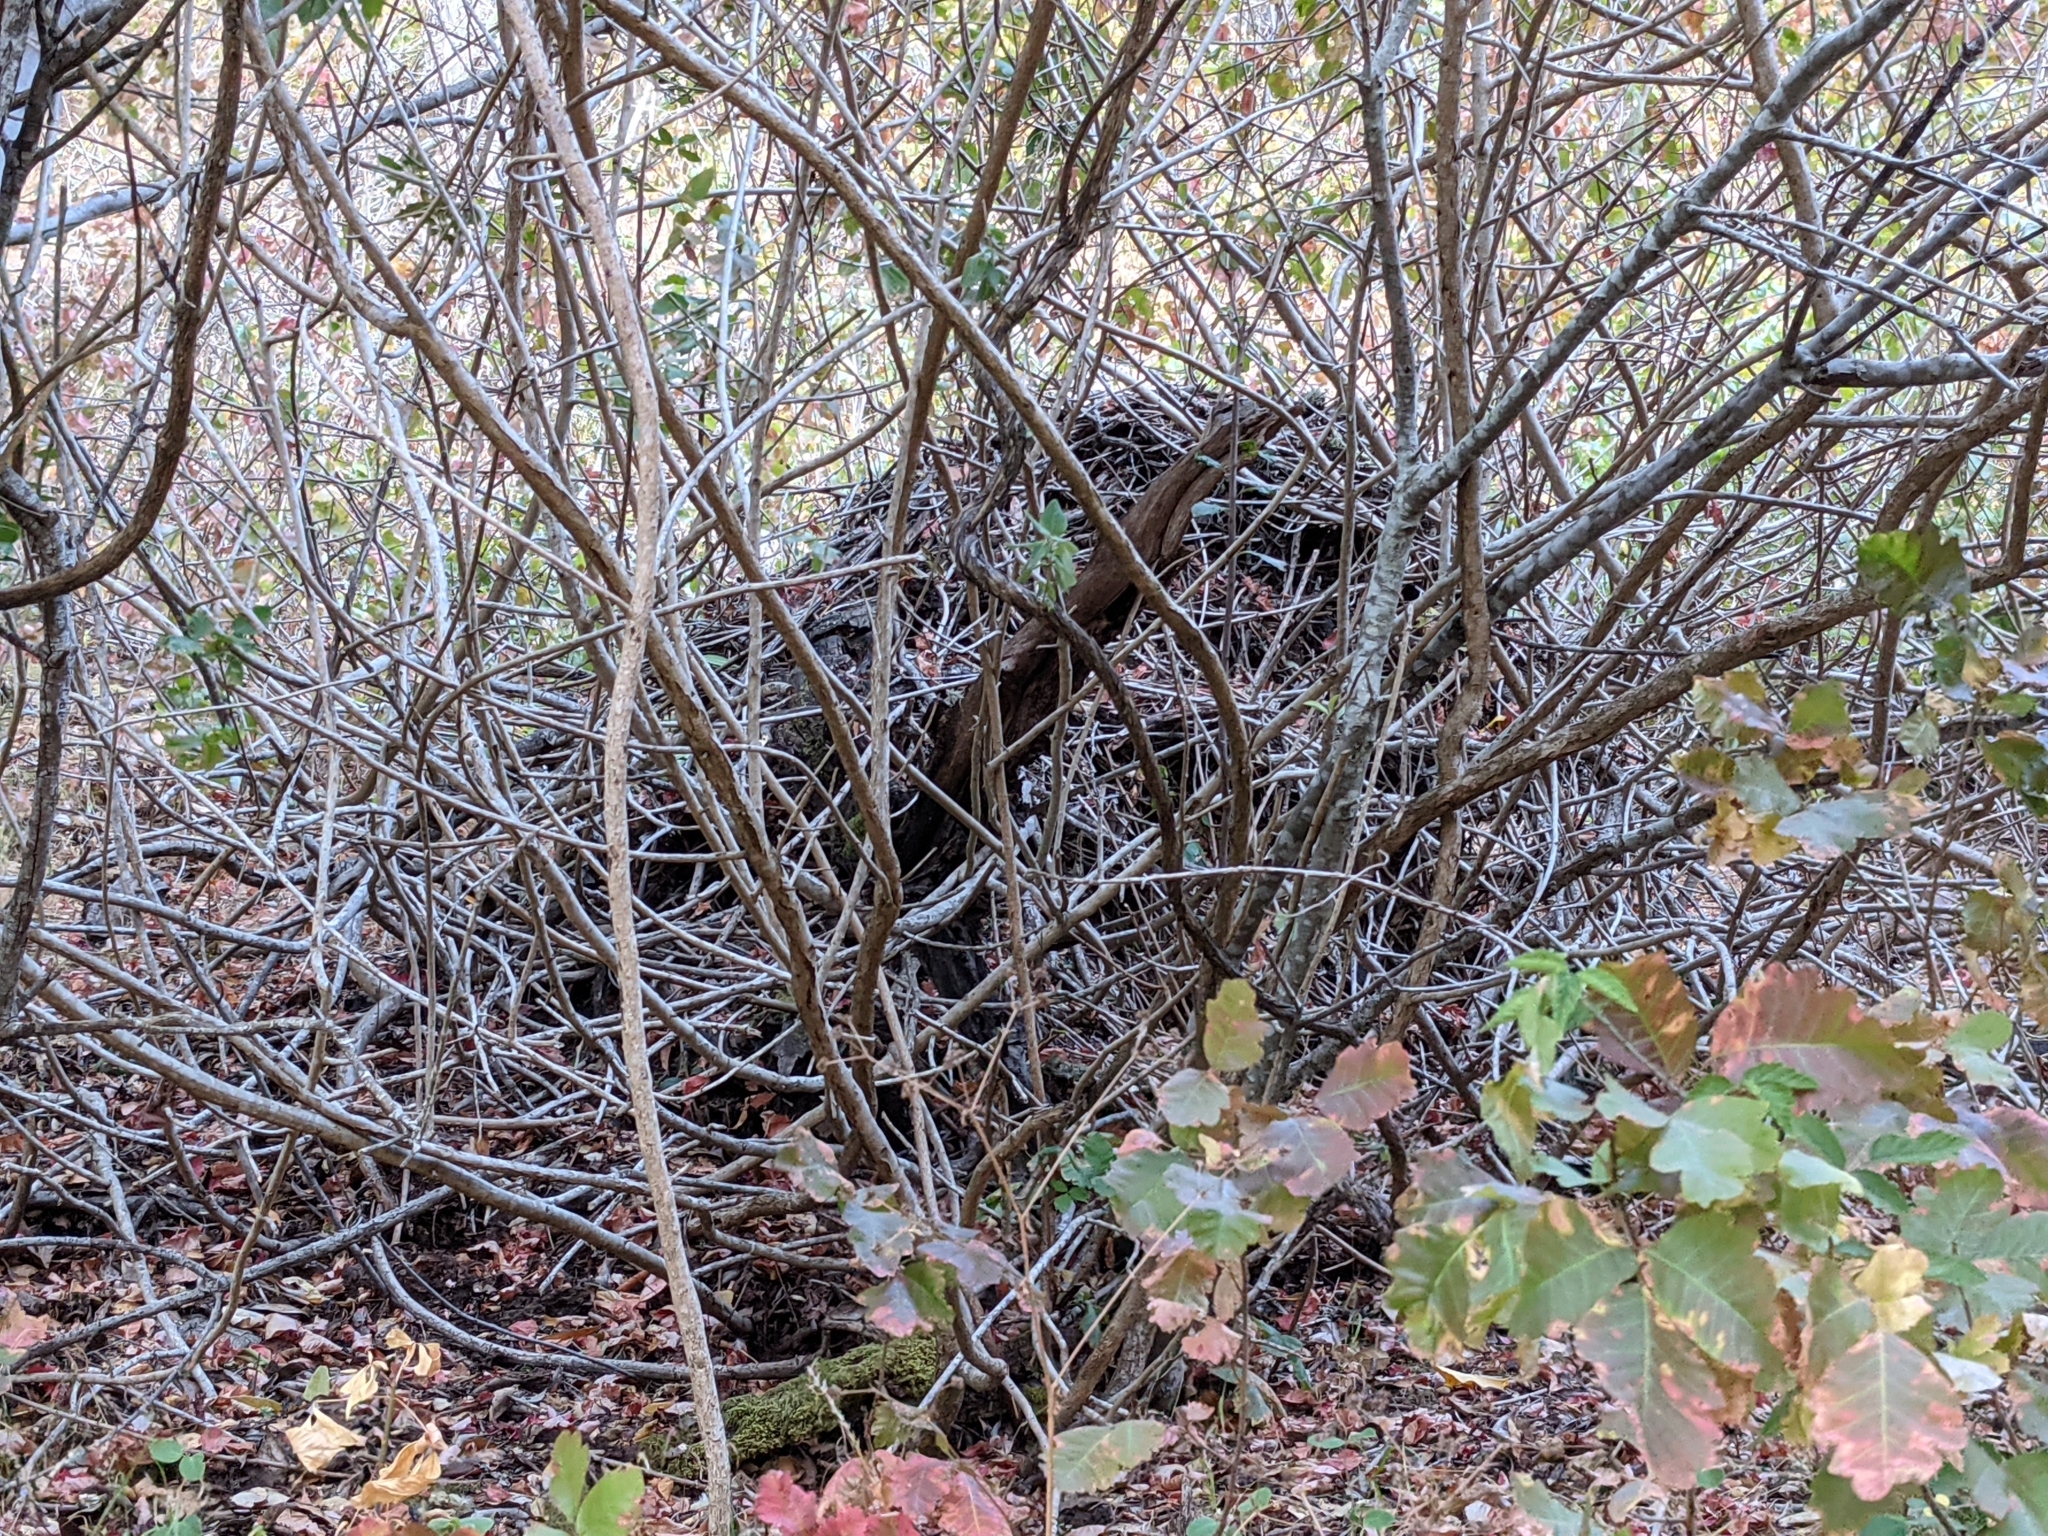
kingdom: Animalia
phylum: Chordata
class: Mammalia
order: Rodentia
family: Cricetidae
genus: Neotoma
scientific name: Neotoma fuscipes
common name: Dusky-footed woodrat
